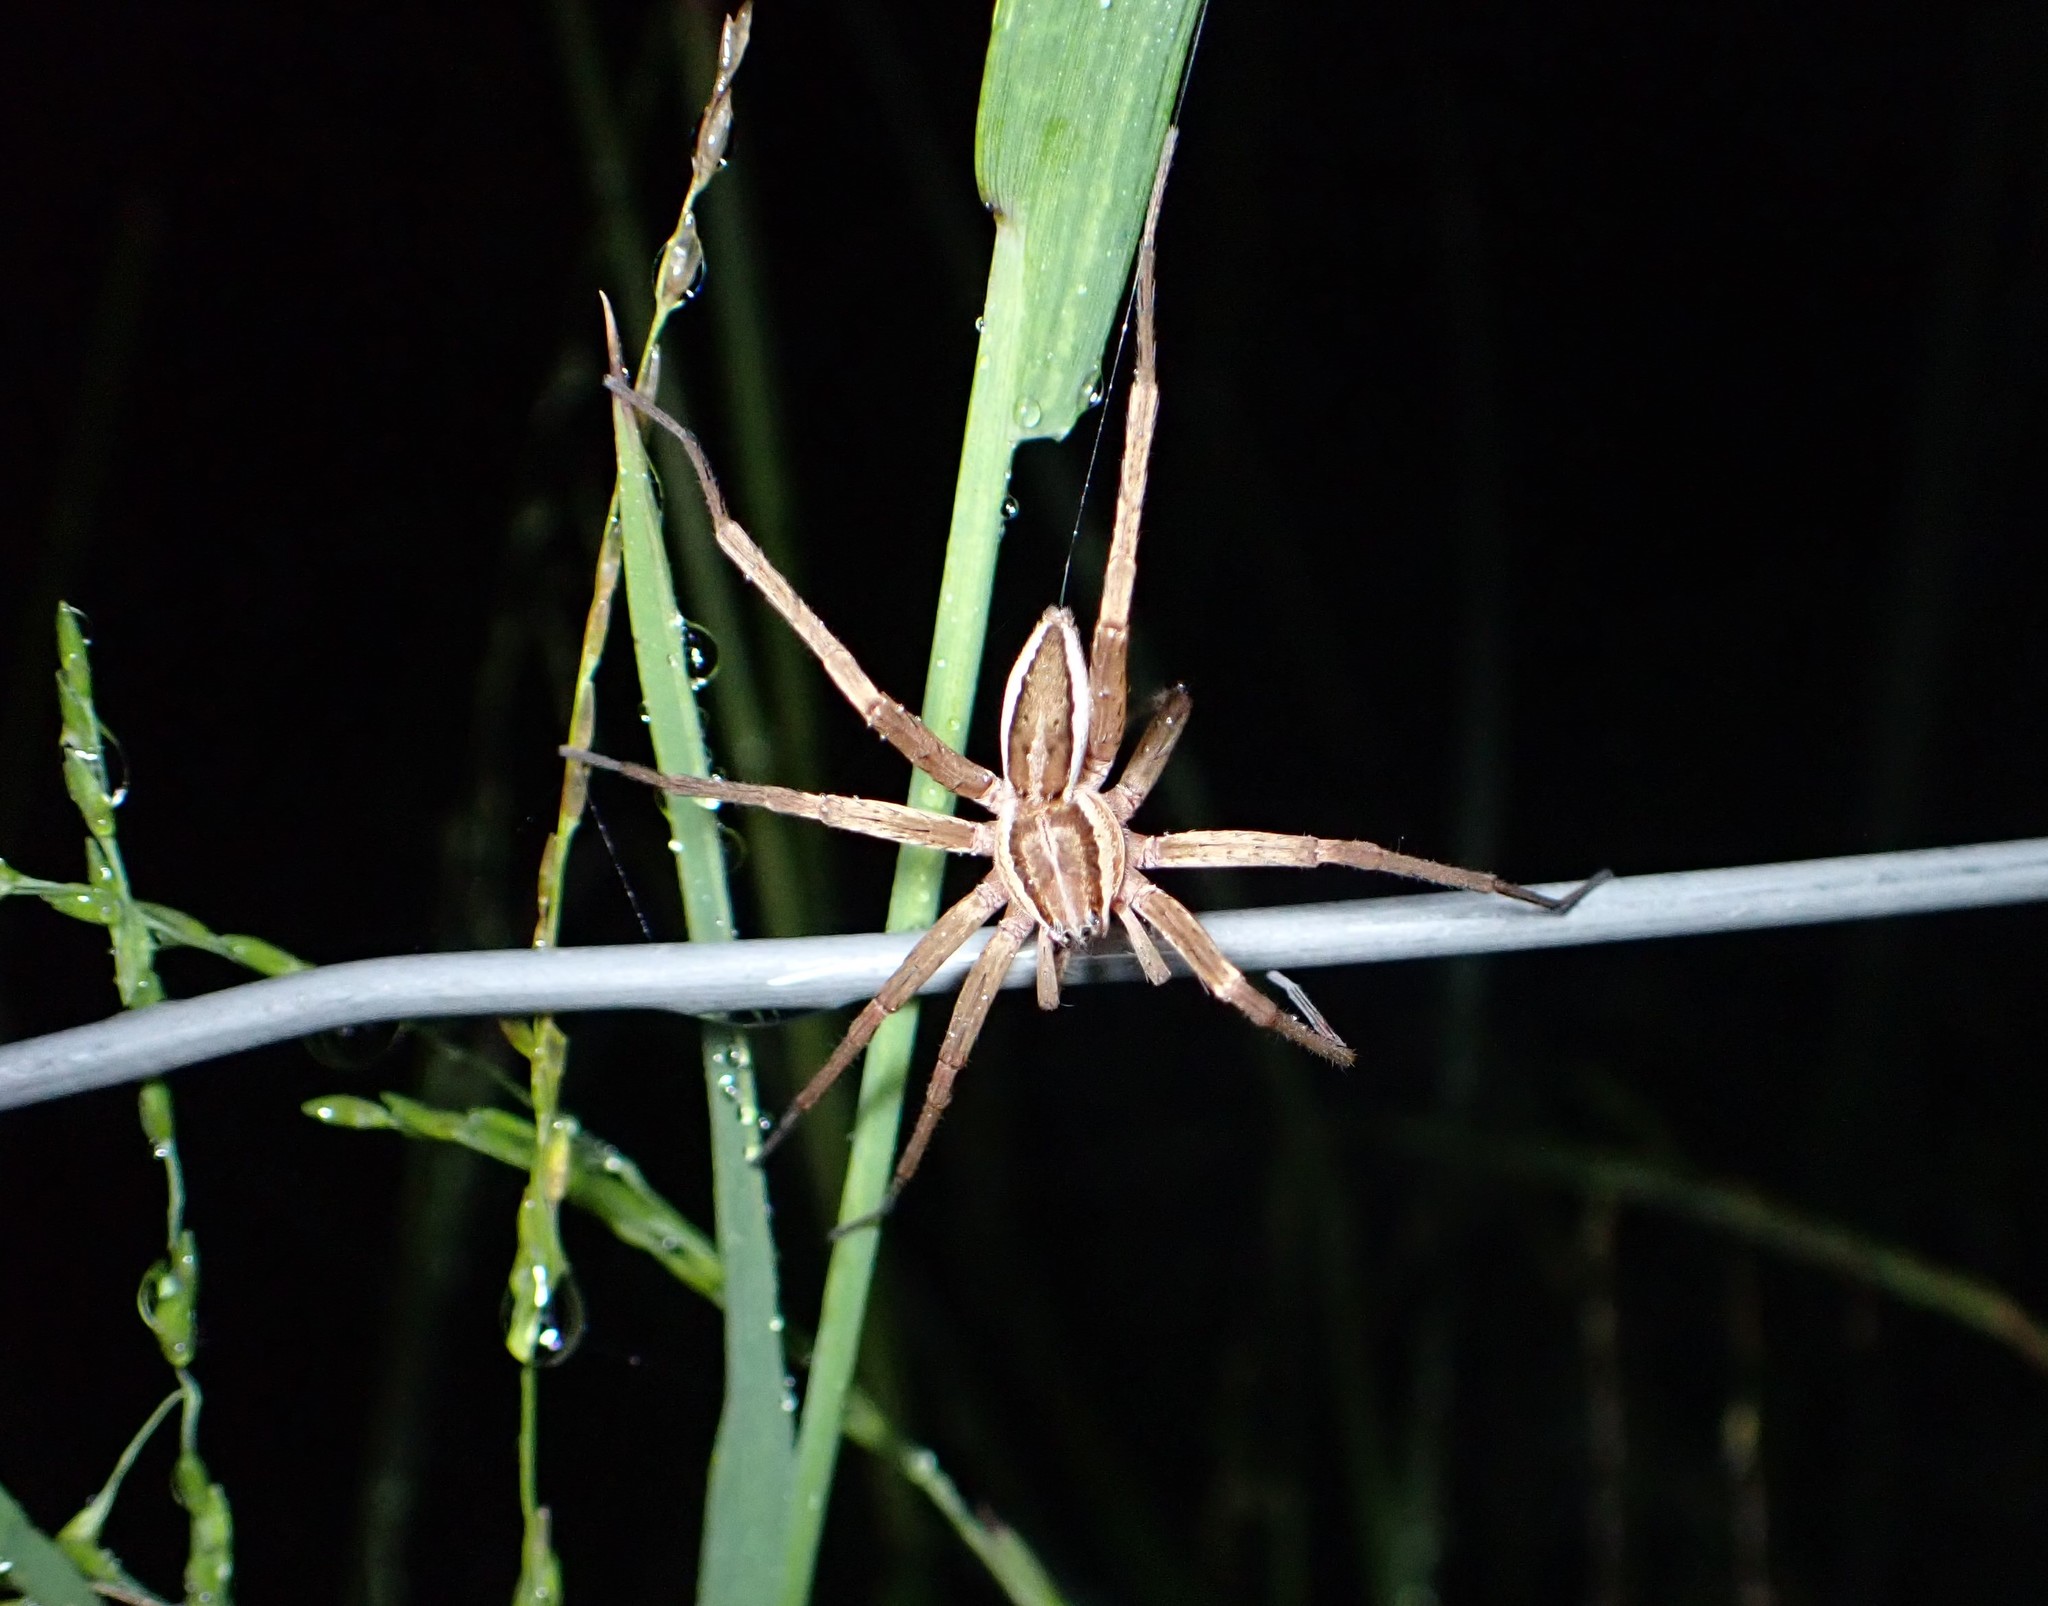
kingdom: Animalia
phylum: Arthropoda
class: Arachnida
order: Araneae
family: Pisauridae
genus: Dolomedes
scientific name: Dolomedes minor
